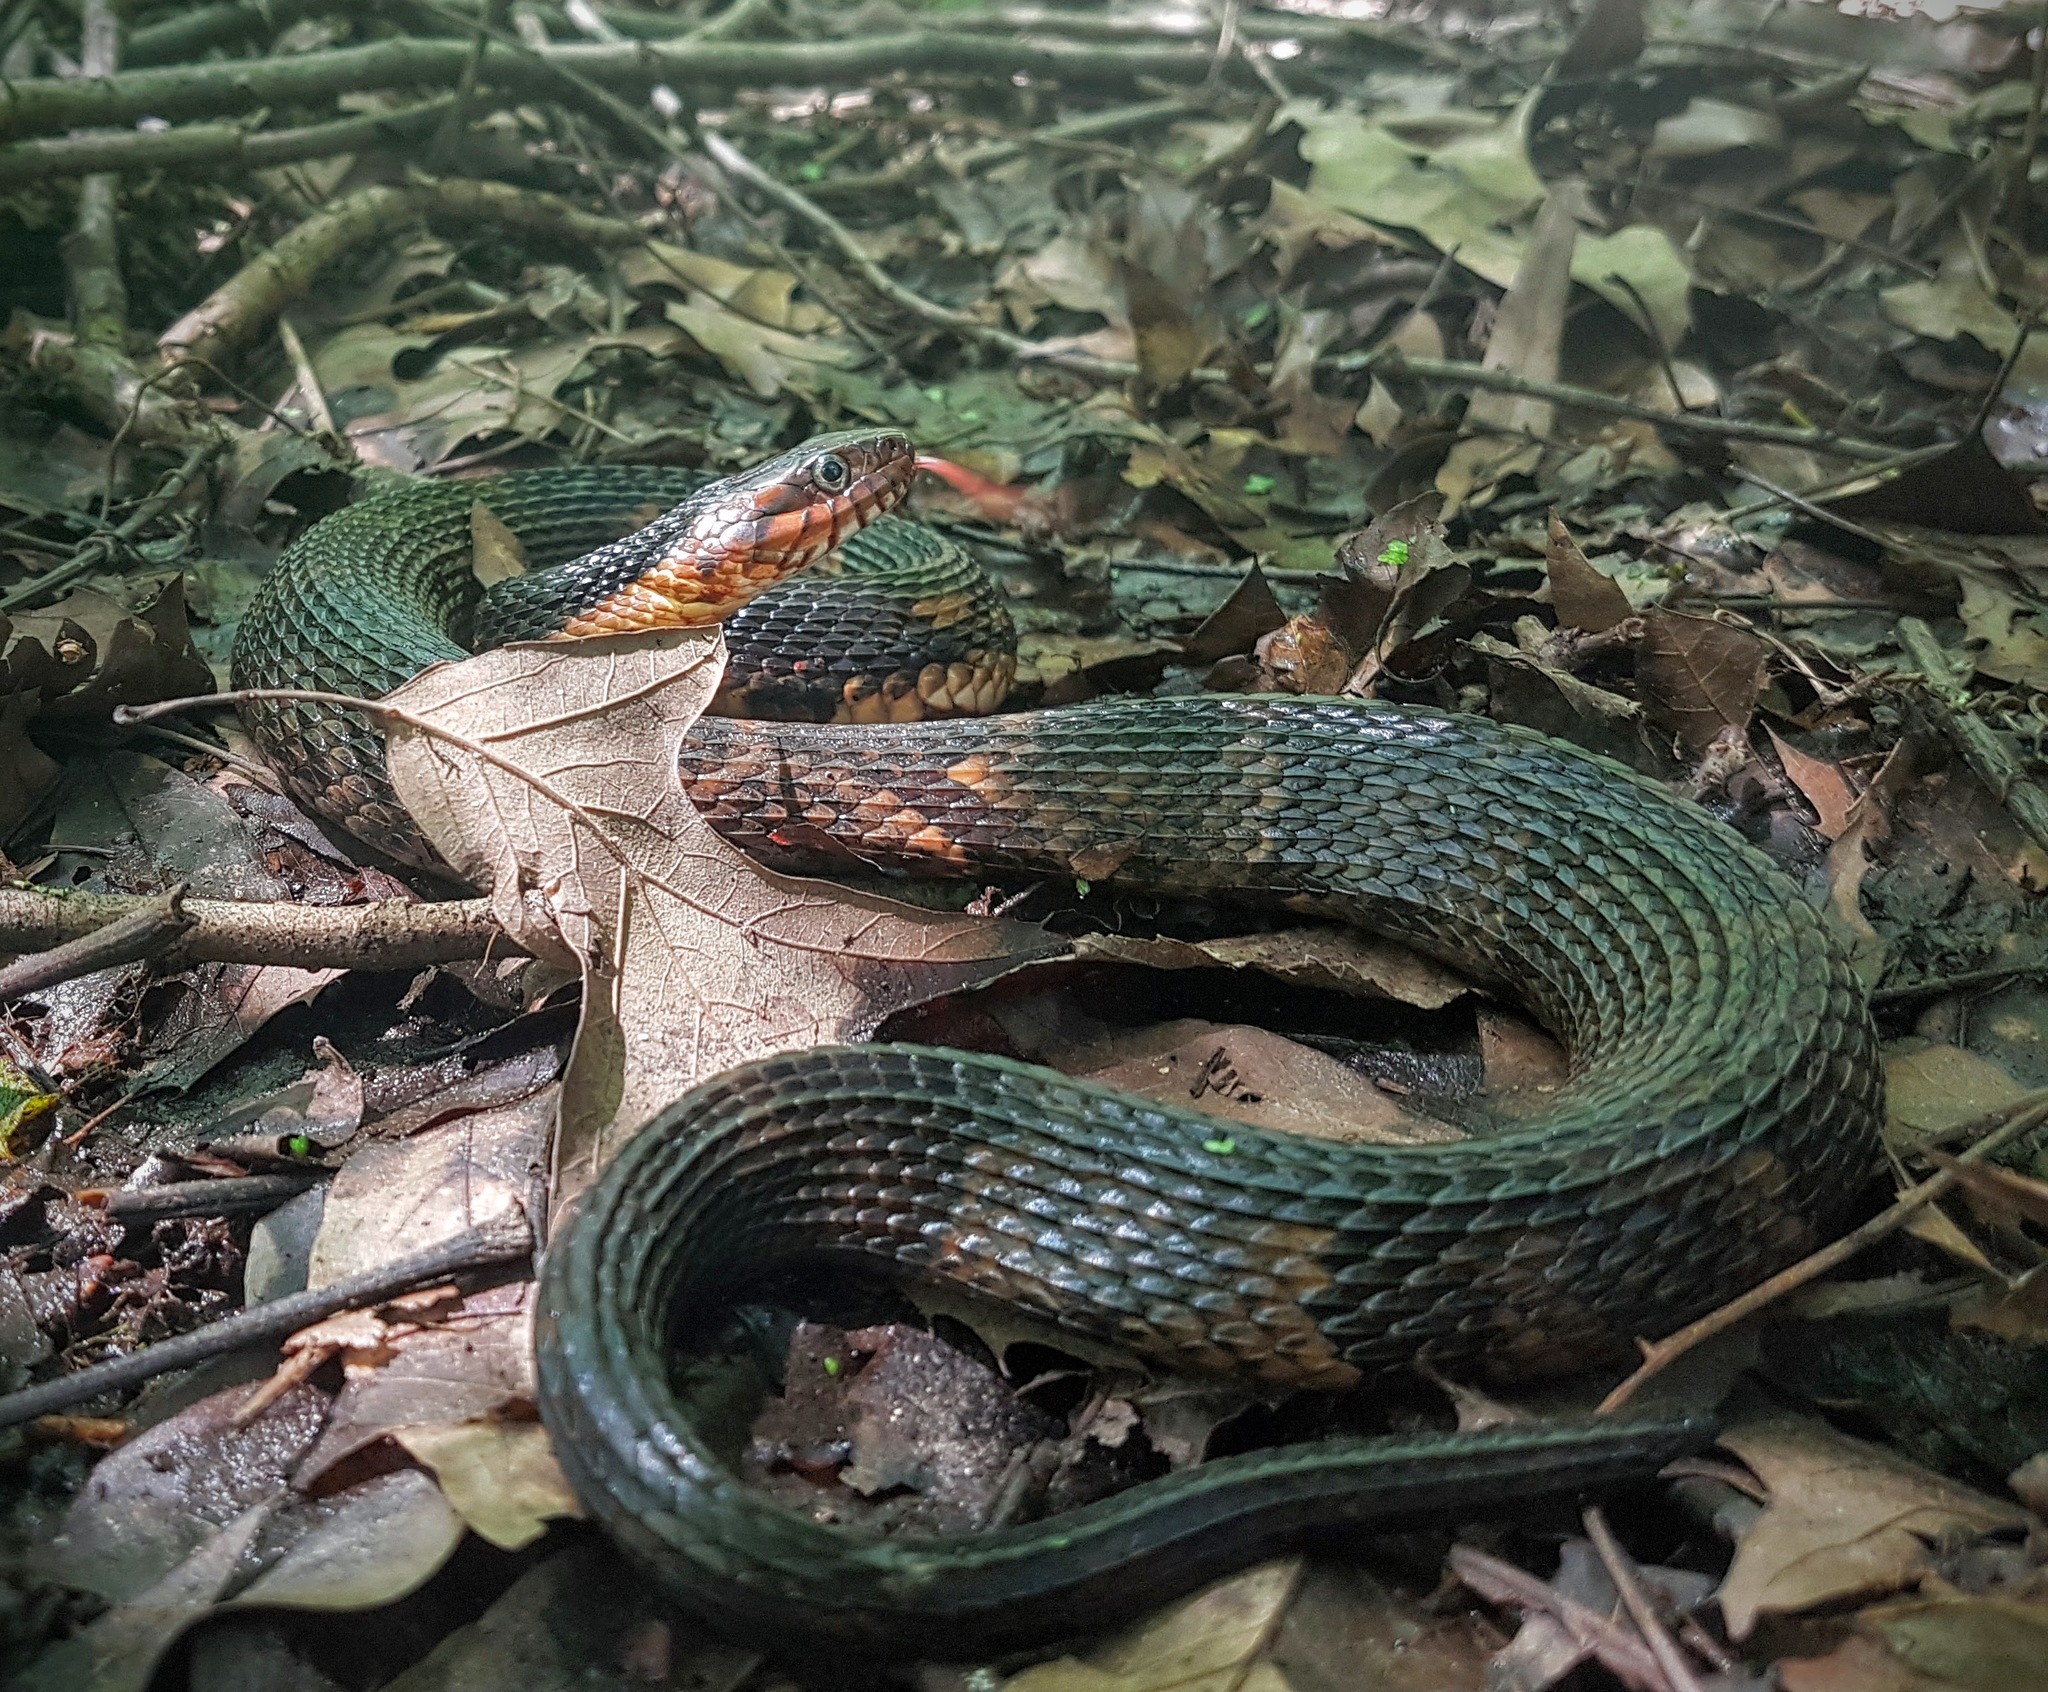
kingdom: Animalia
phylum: Chordata
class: Squamata
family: Colubridae
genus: Nerodia
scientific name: Nerodia fasciata
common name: Southern water snake
